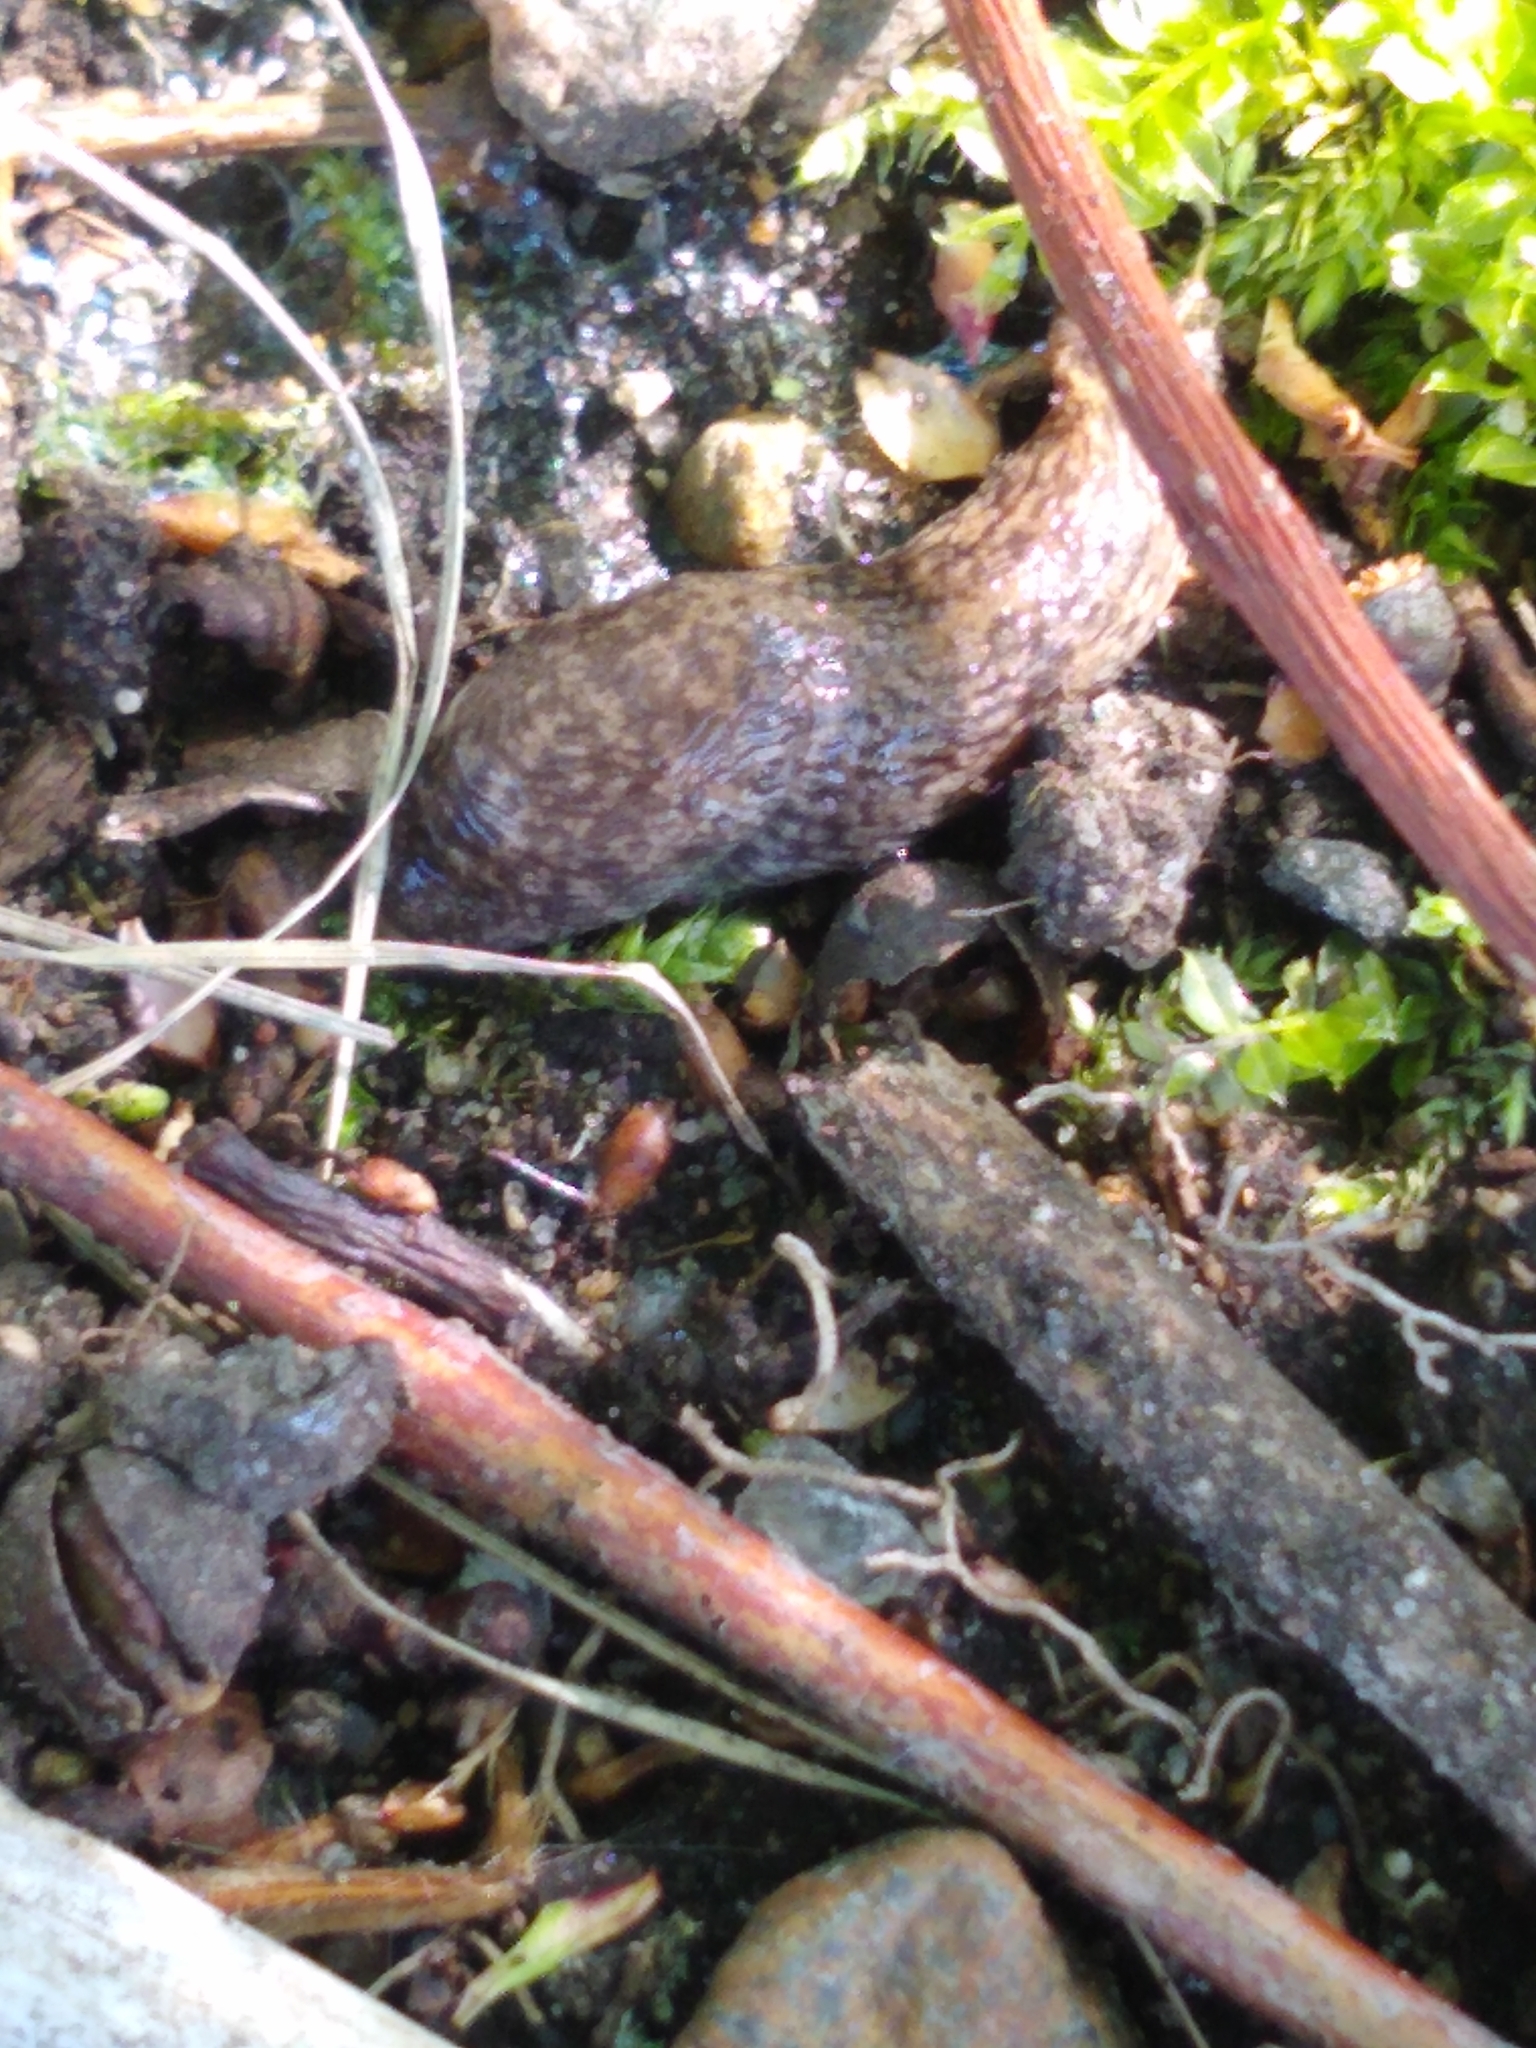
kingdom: Animalia
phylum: Mollusca
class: Gastropoda
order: Stylommatophora
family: Agriolimacidae
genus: Deroceras
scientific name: Deroceras reticulatum
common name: Gray field slug
